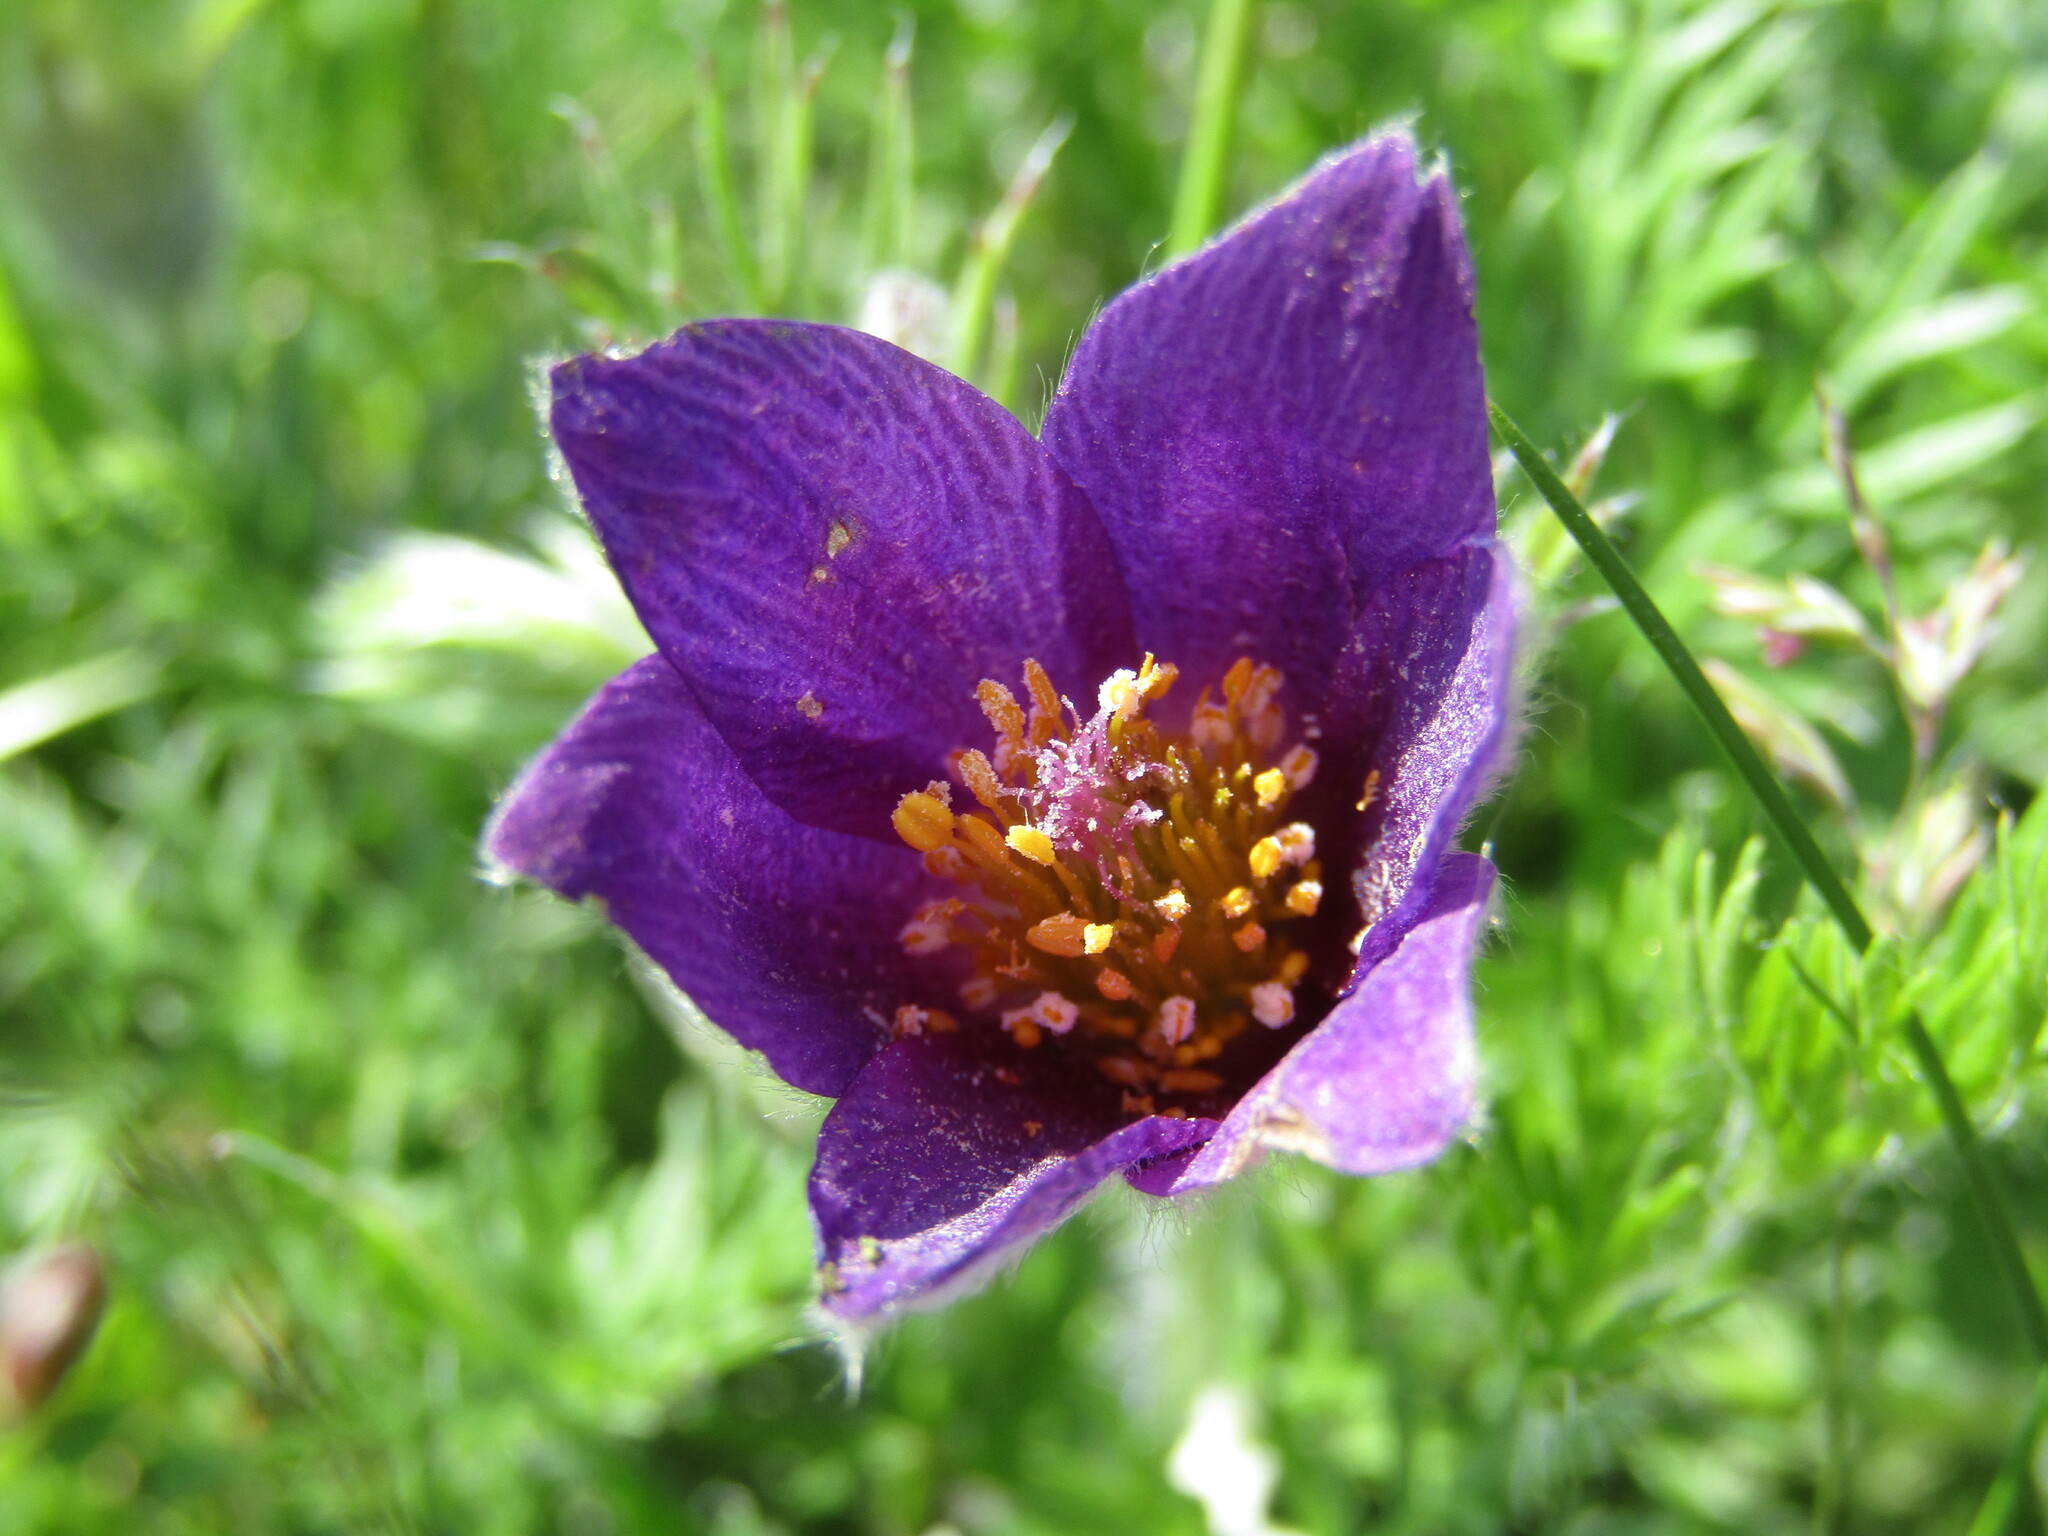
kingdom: Plantae
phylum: Tracheophyta
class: Magnoliopsida
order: Ranunculales
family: Ranunculaceae
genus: Pulsatilla
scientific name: Pulsatilla vulgaris
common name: Pasqueflower
